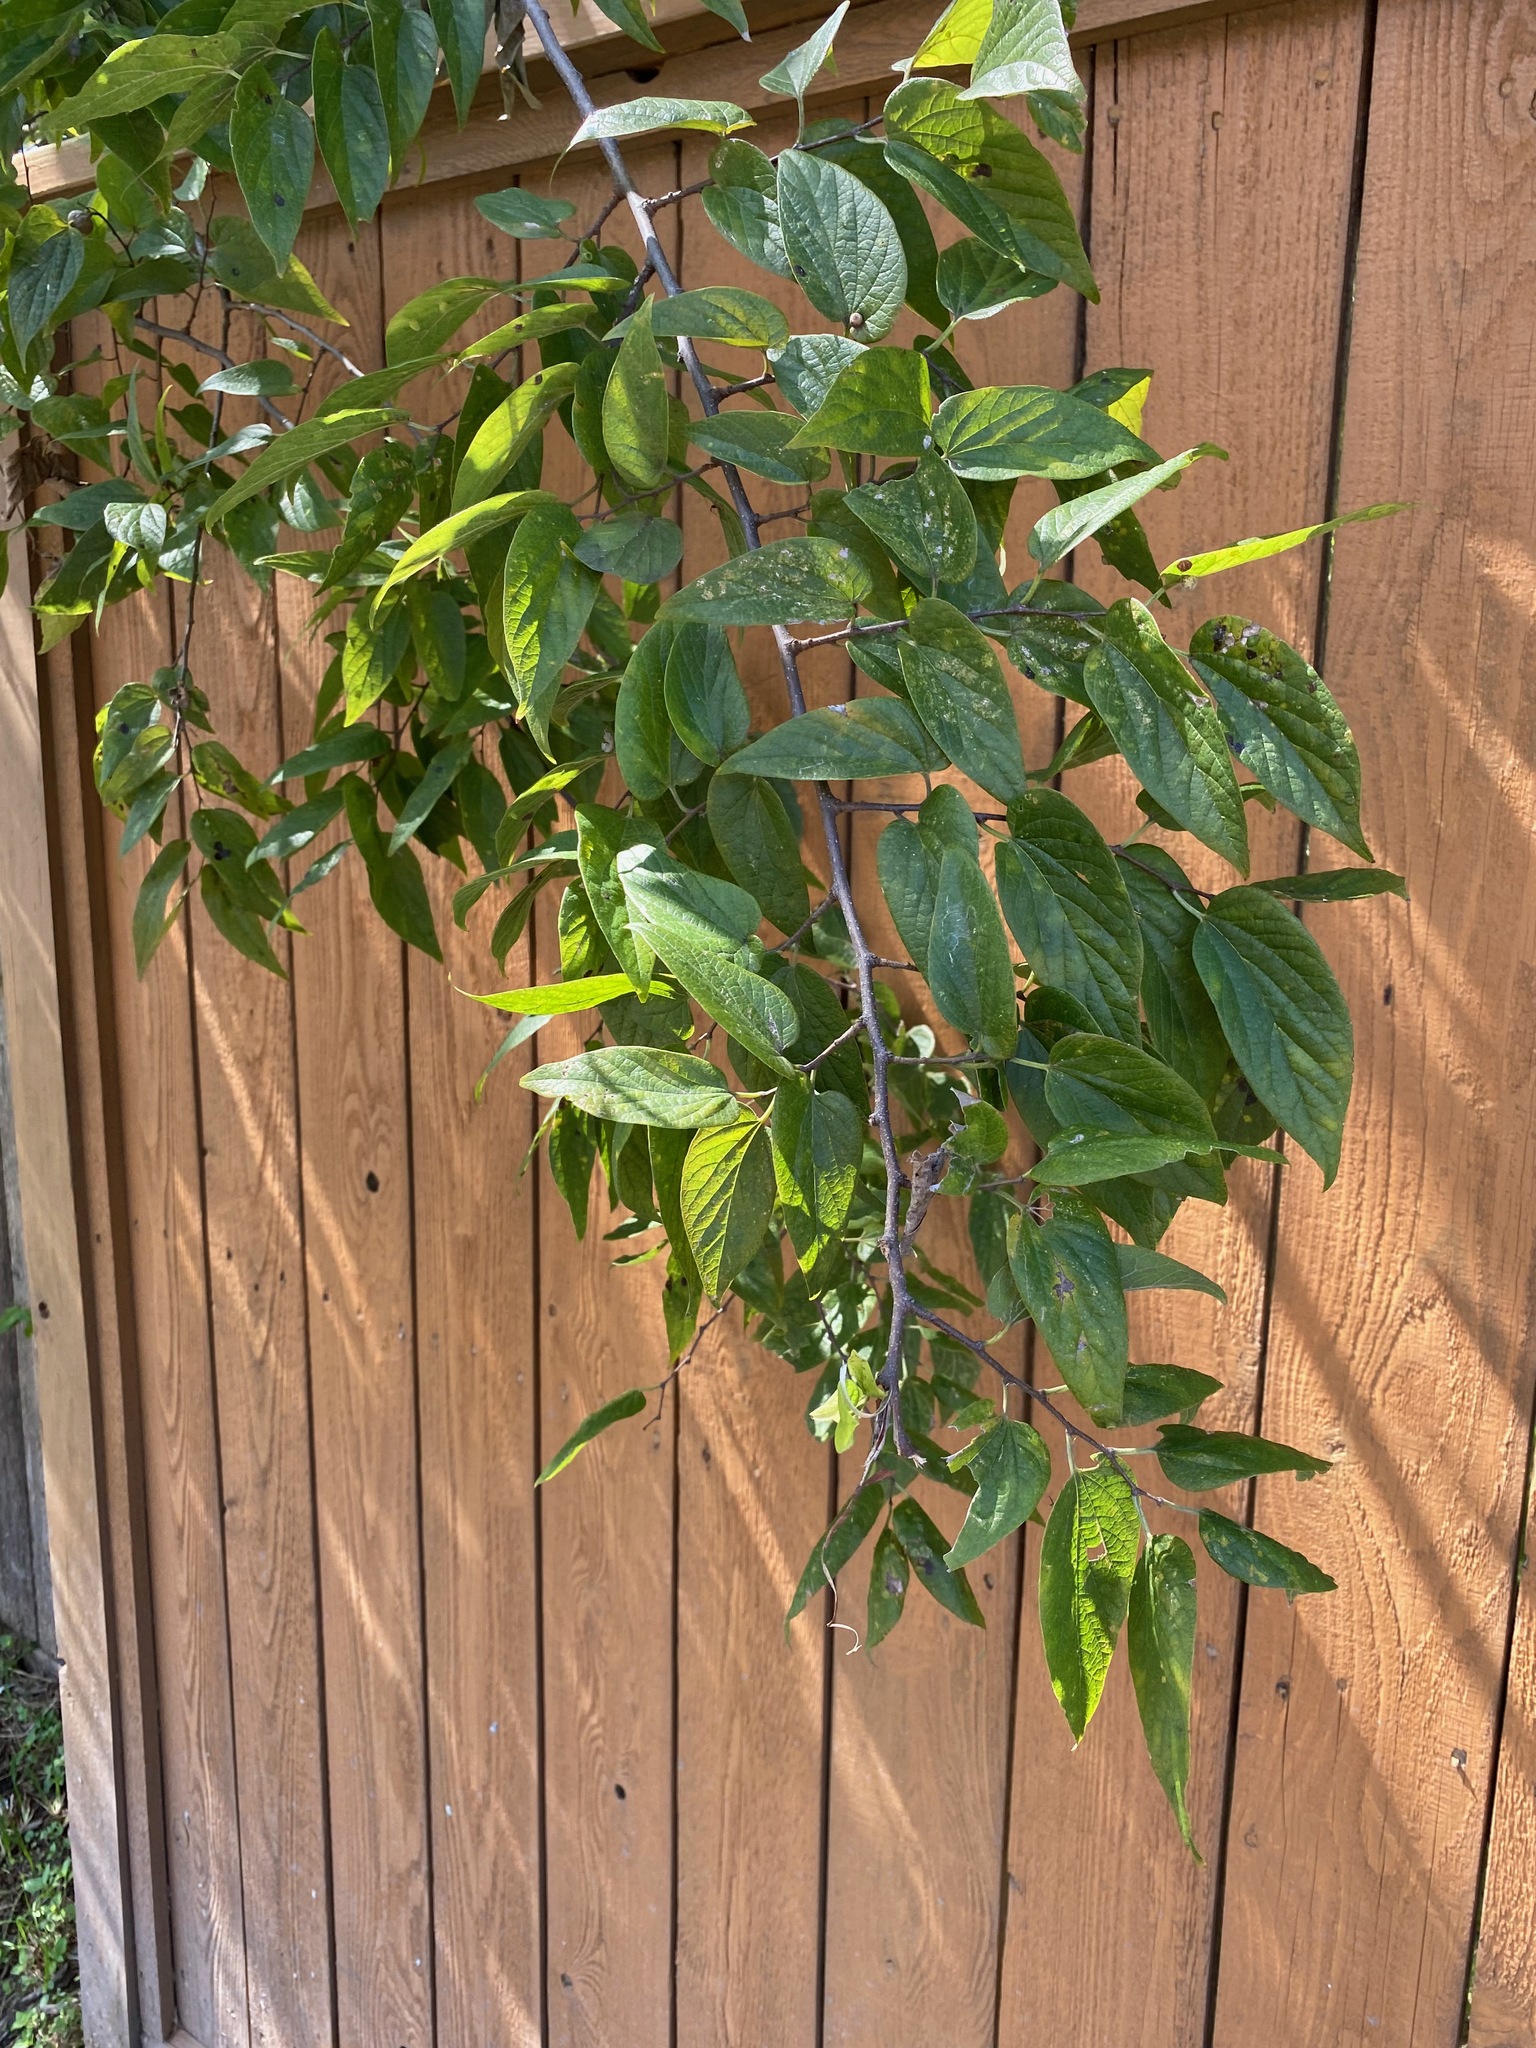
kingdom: Plantae
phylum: Tracheophyta
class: Magnoliopsida
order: Rosales
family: Cannabaceae
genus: Celtis
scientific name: Celtis laevigata
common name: Sugarberry
